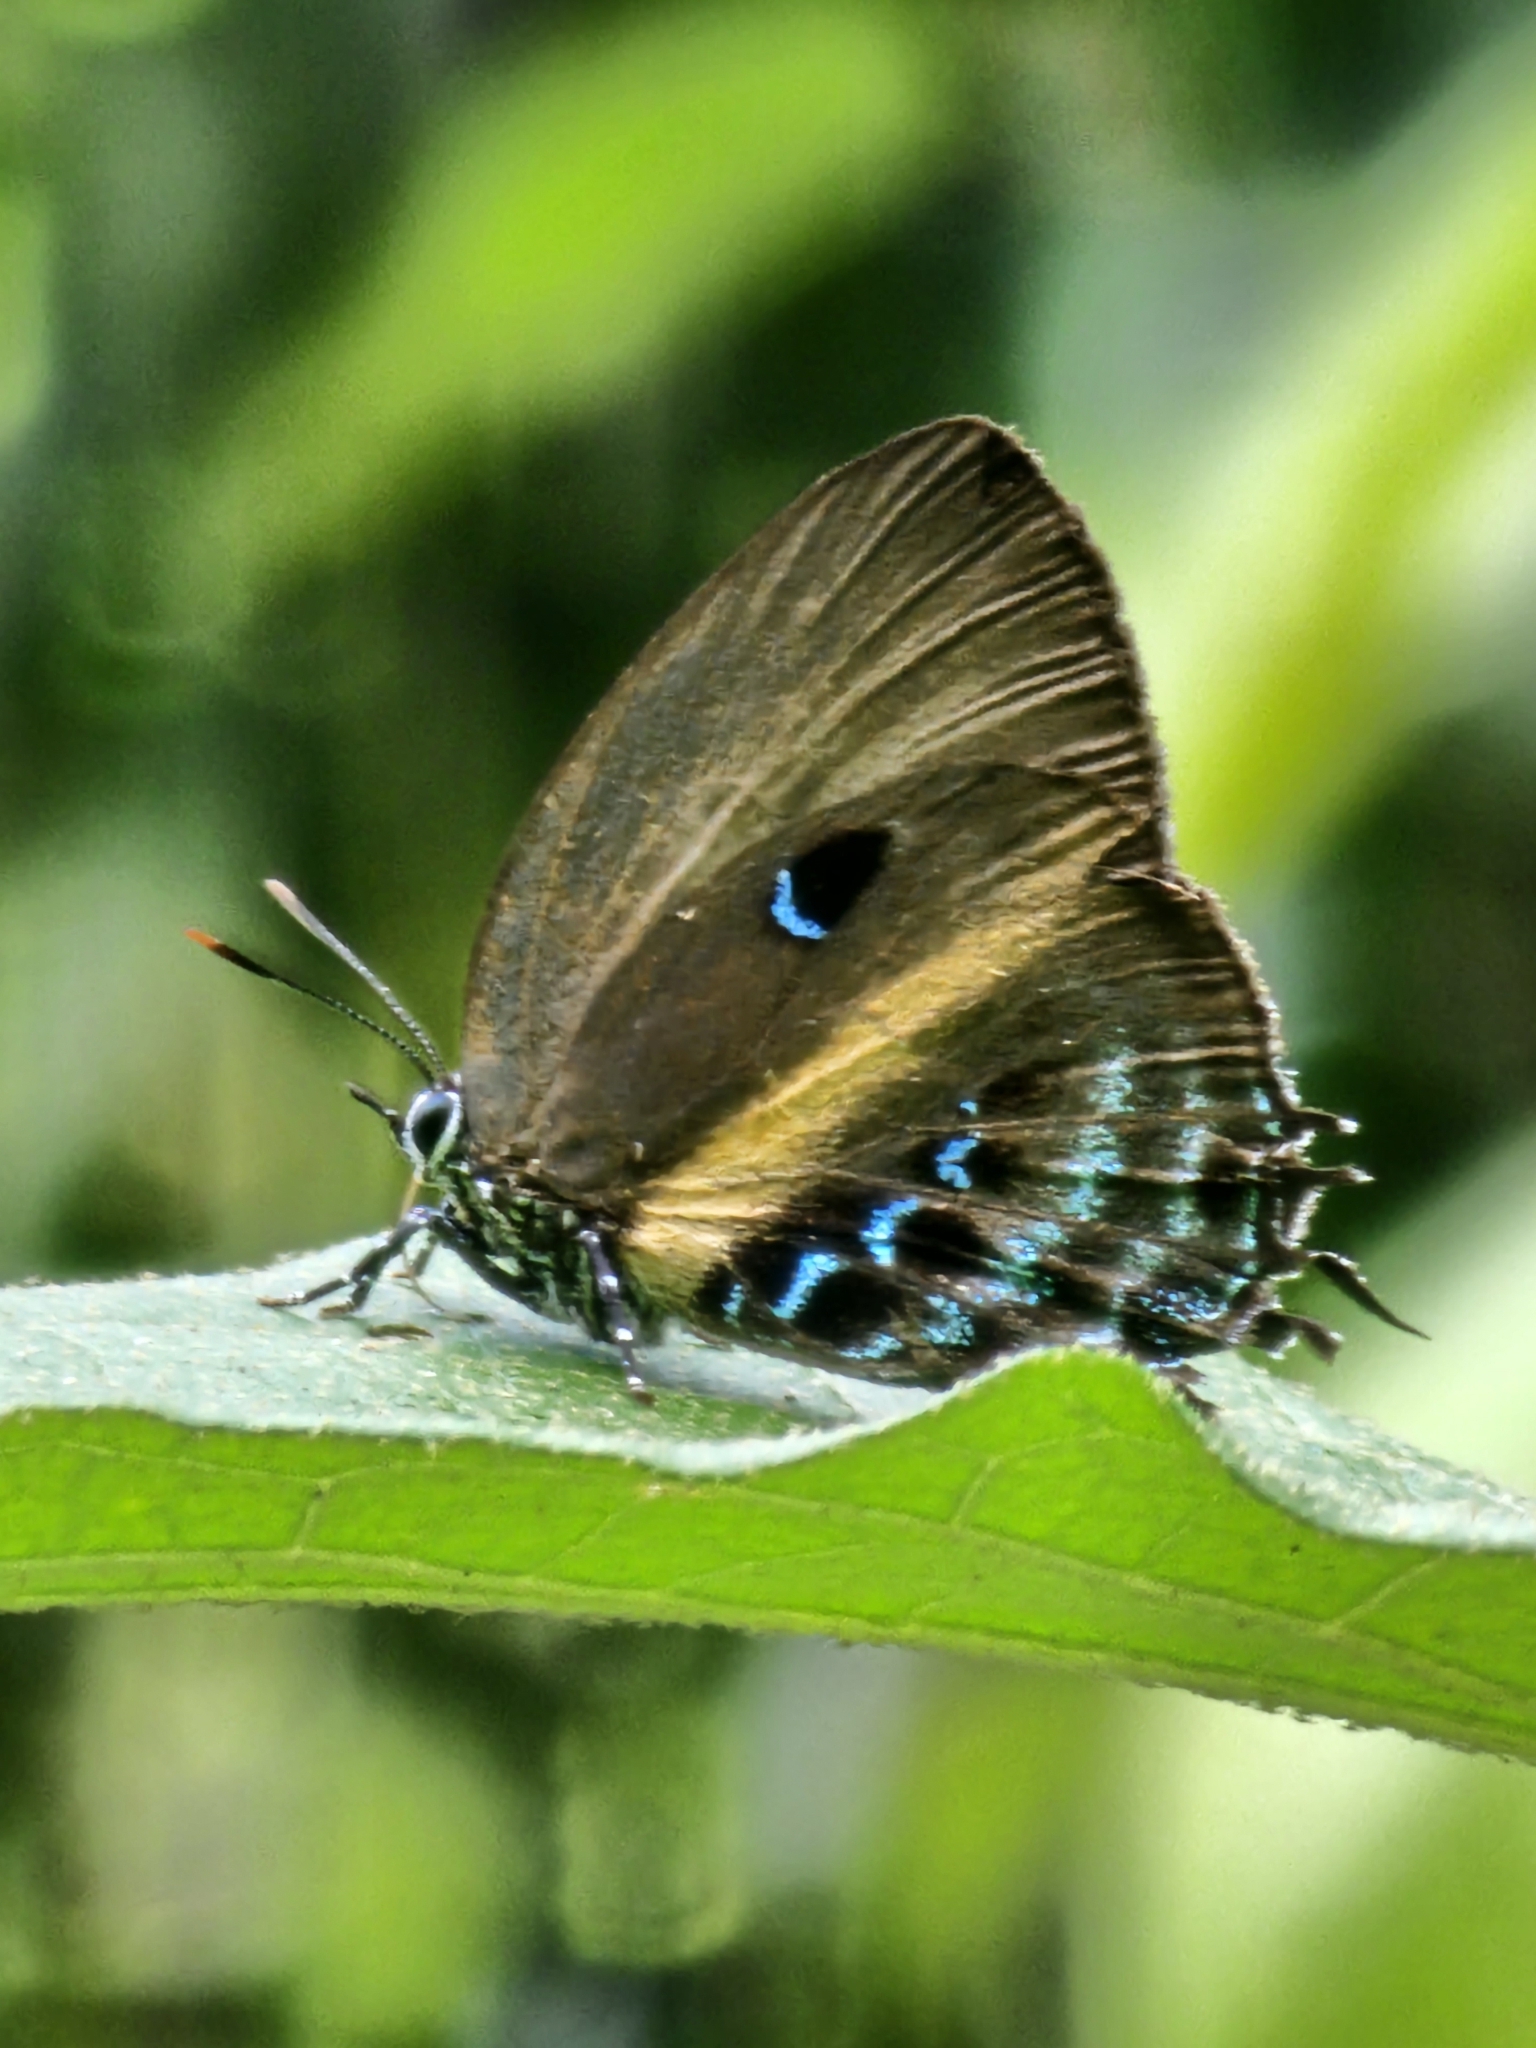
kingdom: Animalia
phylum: Arthropoda
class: Insecta
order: Lepidoptera
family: Lycaenidae
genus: Mithras
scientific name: Mithras nautes
